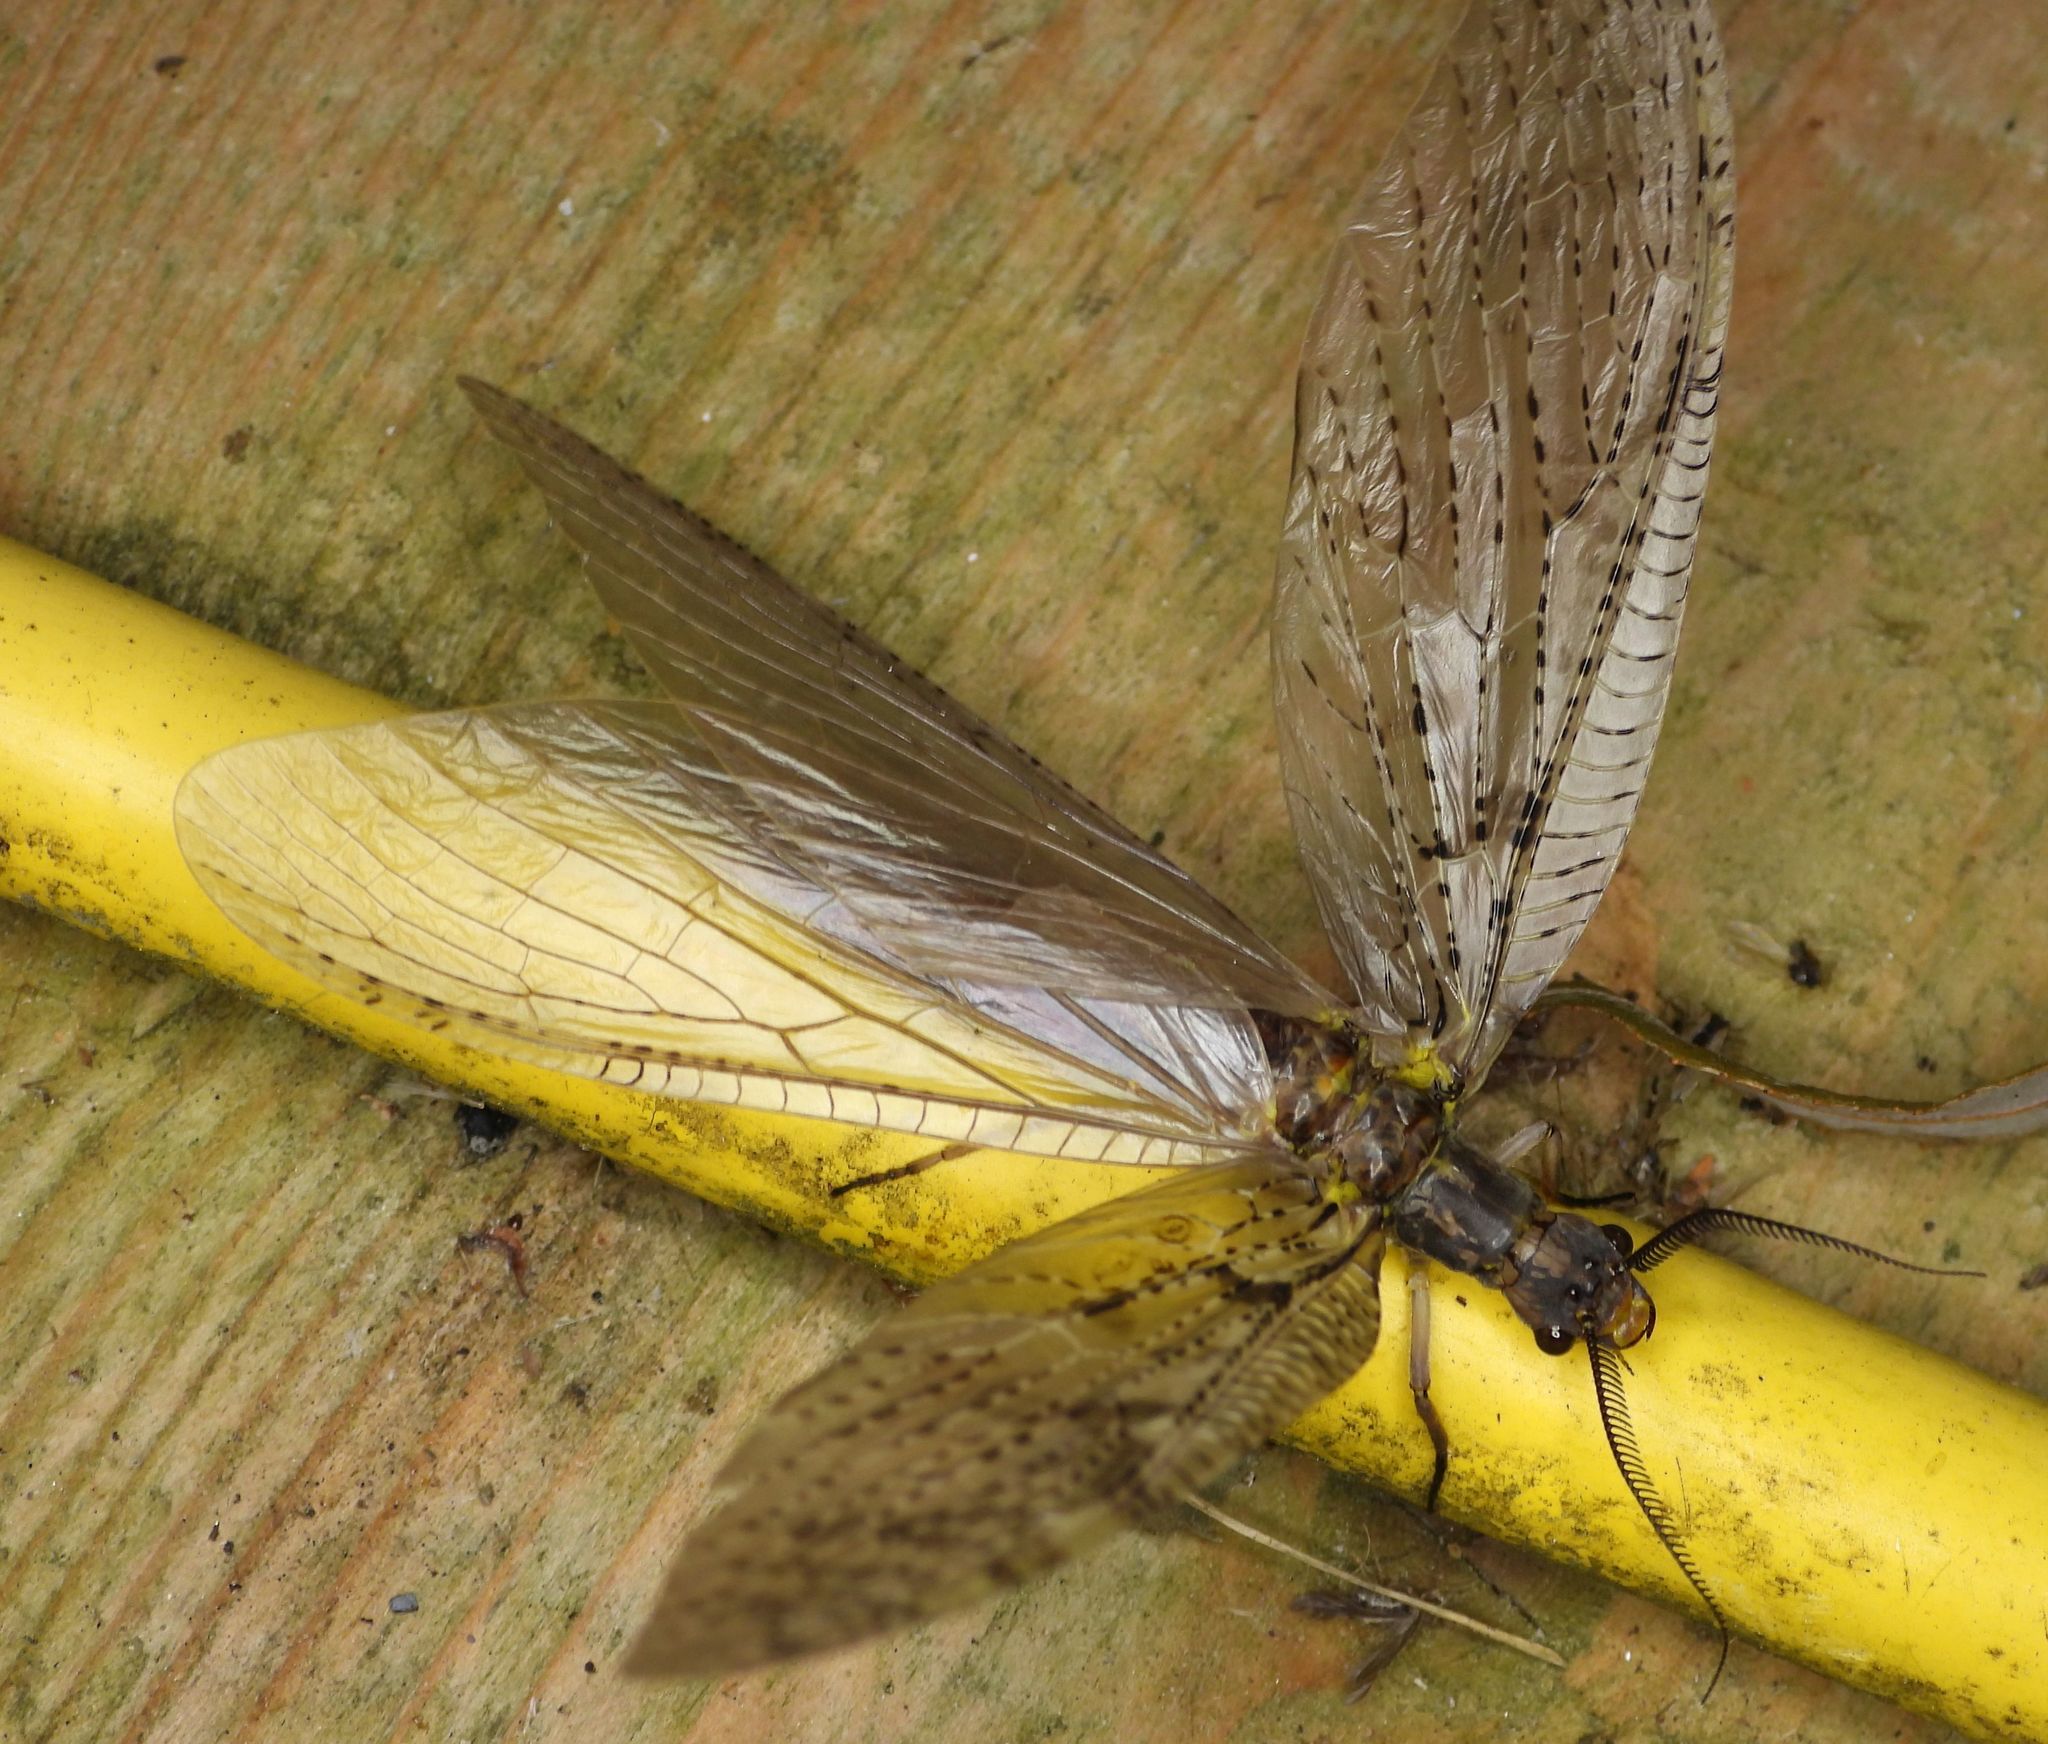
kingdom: Animalia
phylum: Arthropoda
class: Insecta
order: Megaloptera
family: Corydalidae
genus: Chauliodes
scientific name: Chauliodes pectinicornis
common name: Summer fishfly
